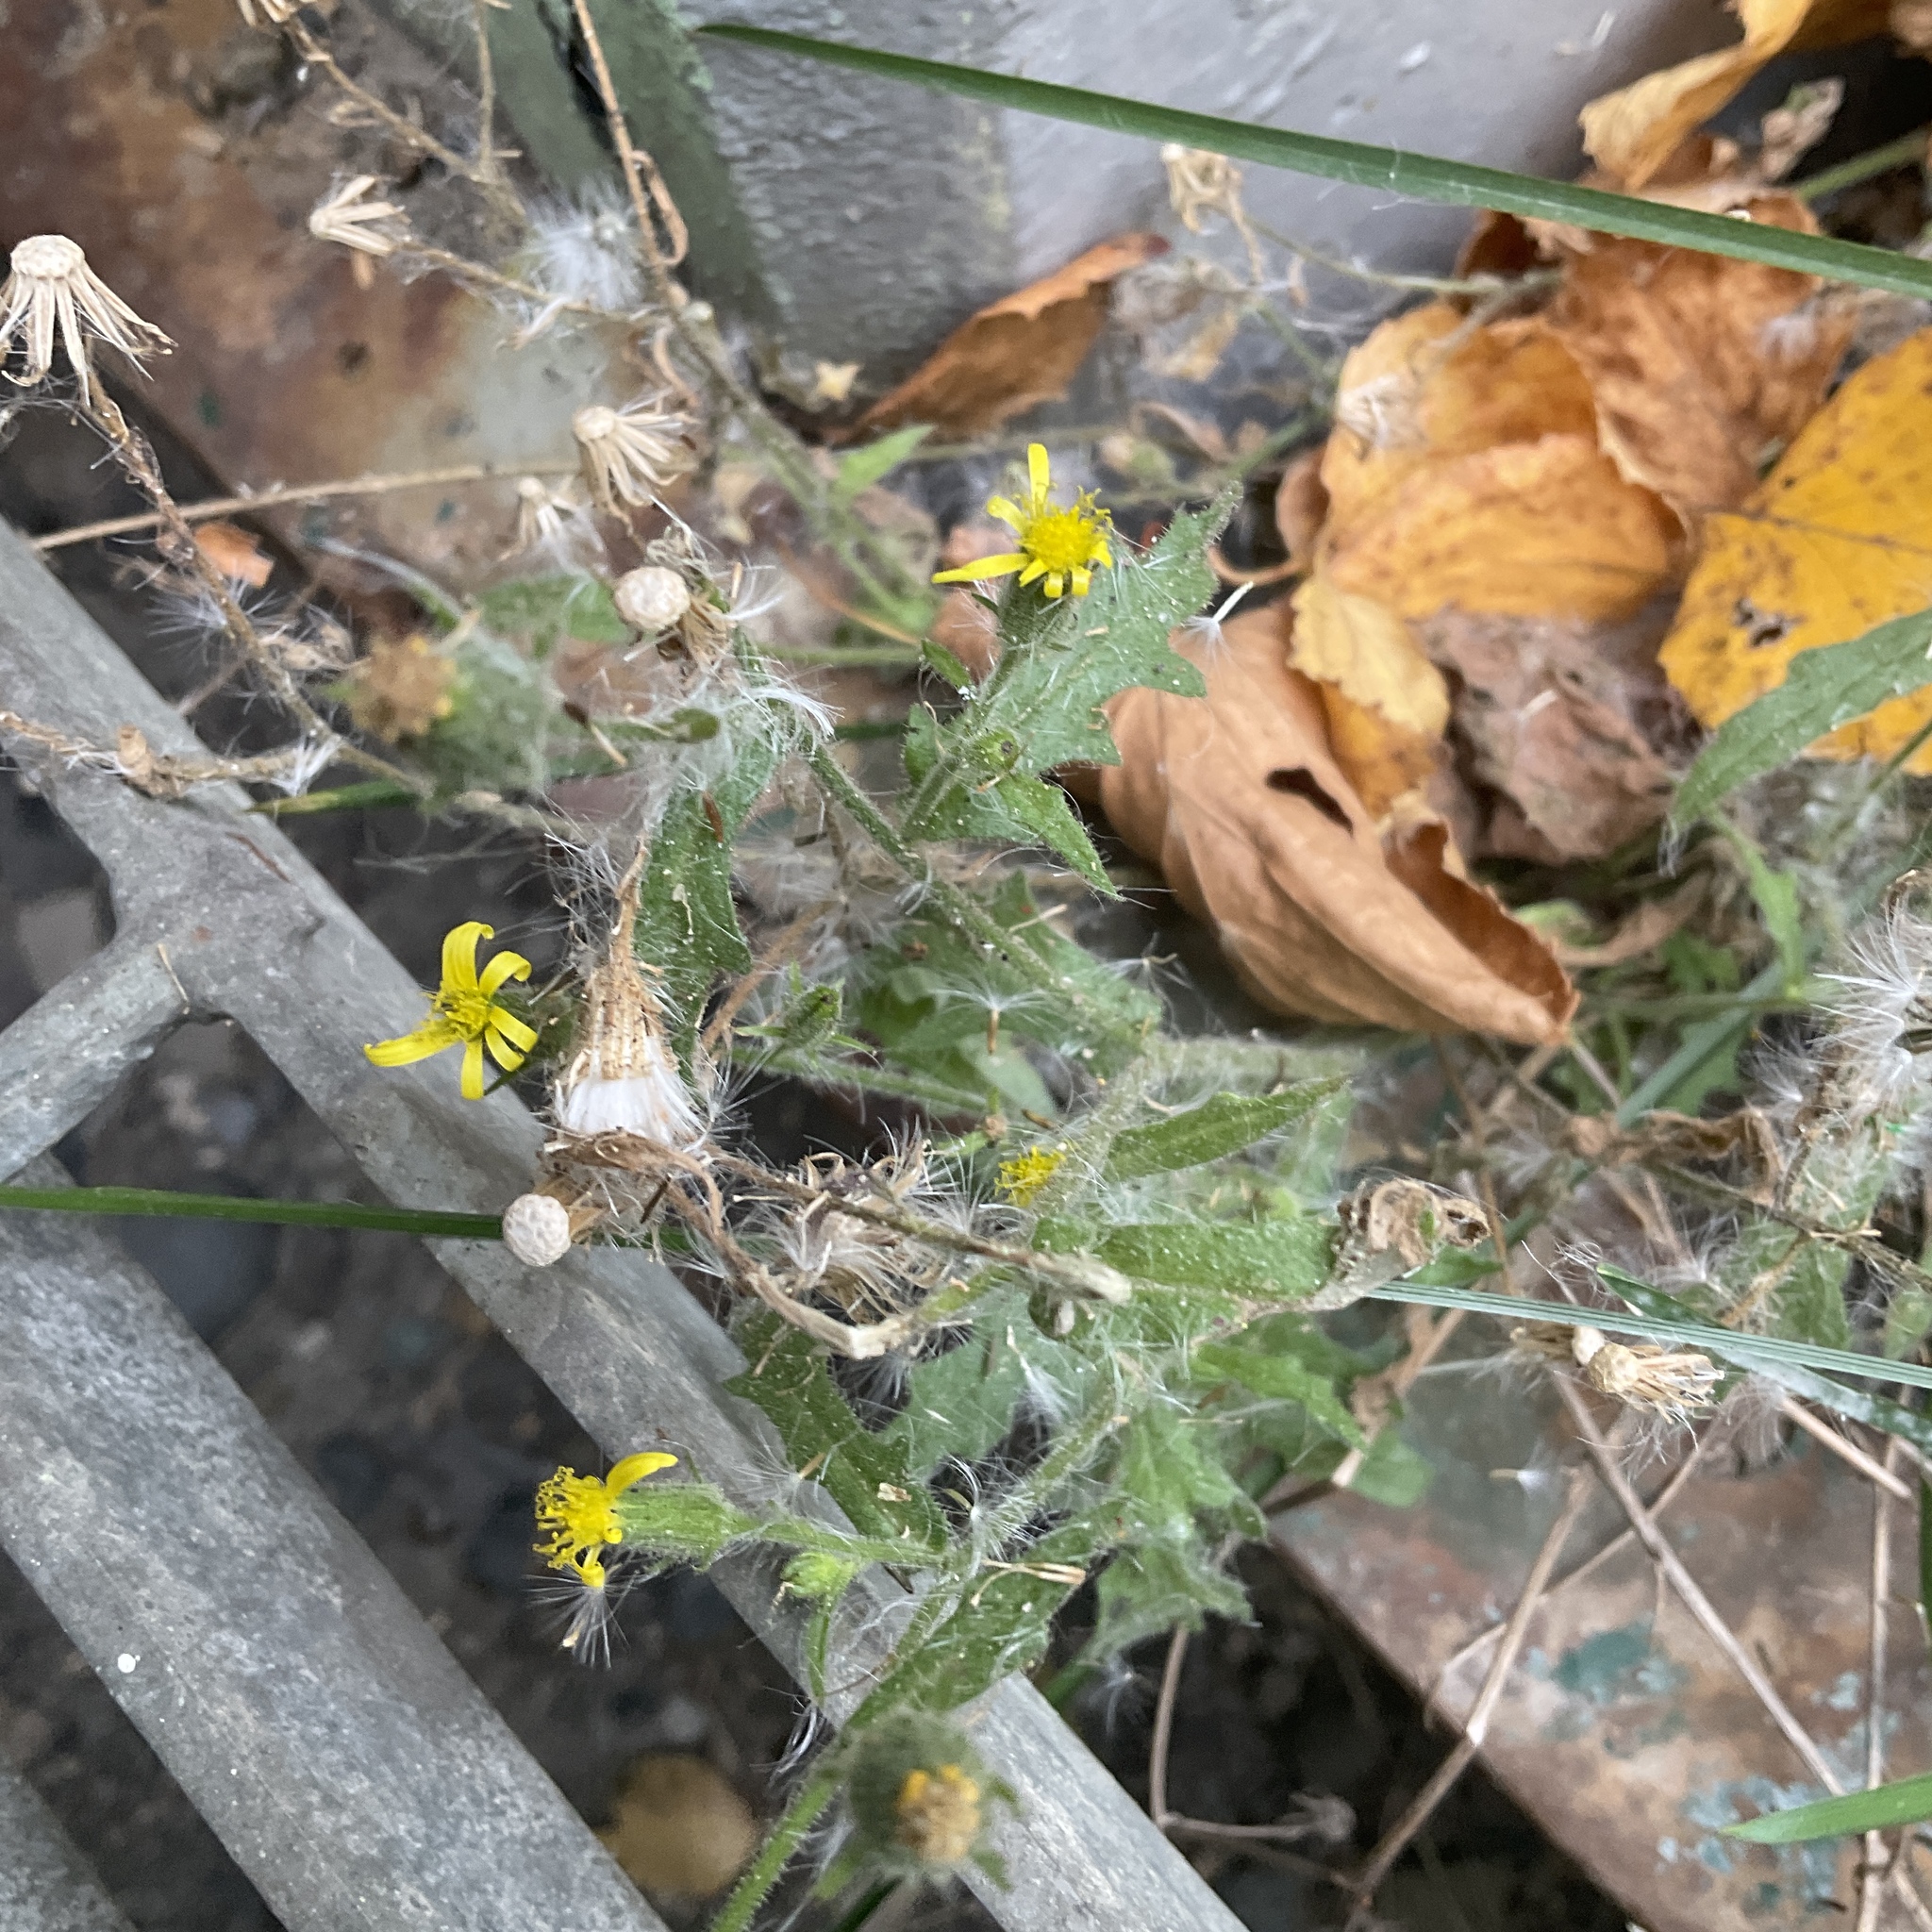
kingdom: Plantae
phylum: Tracheophyta
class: Magnoliopsida
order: Asterales
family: Asteraceae
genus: Senecio
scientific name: Senecio viscosus
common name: Sticky groundsel
